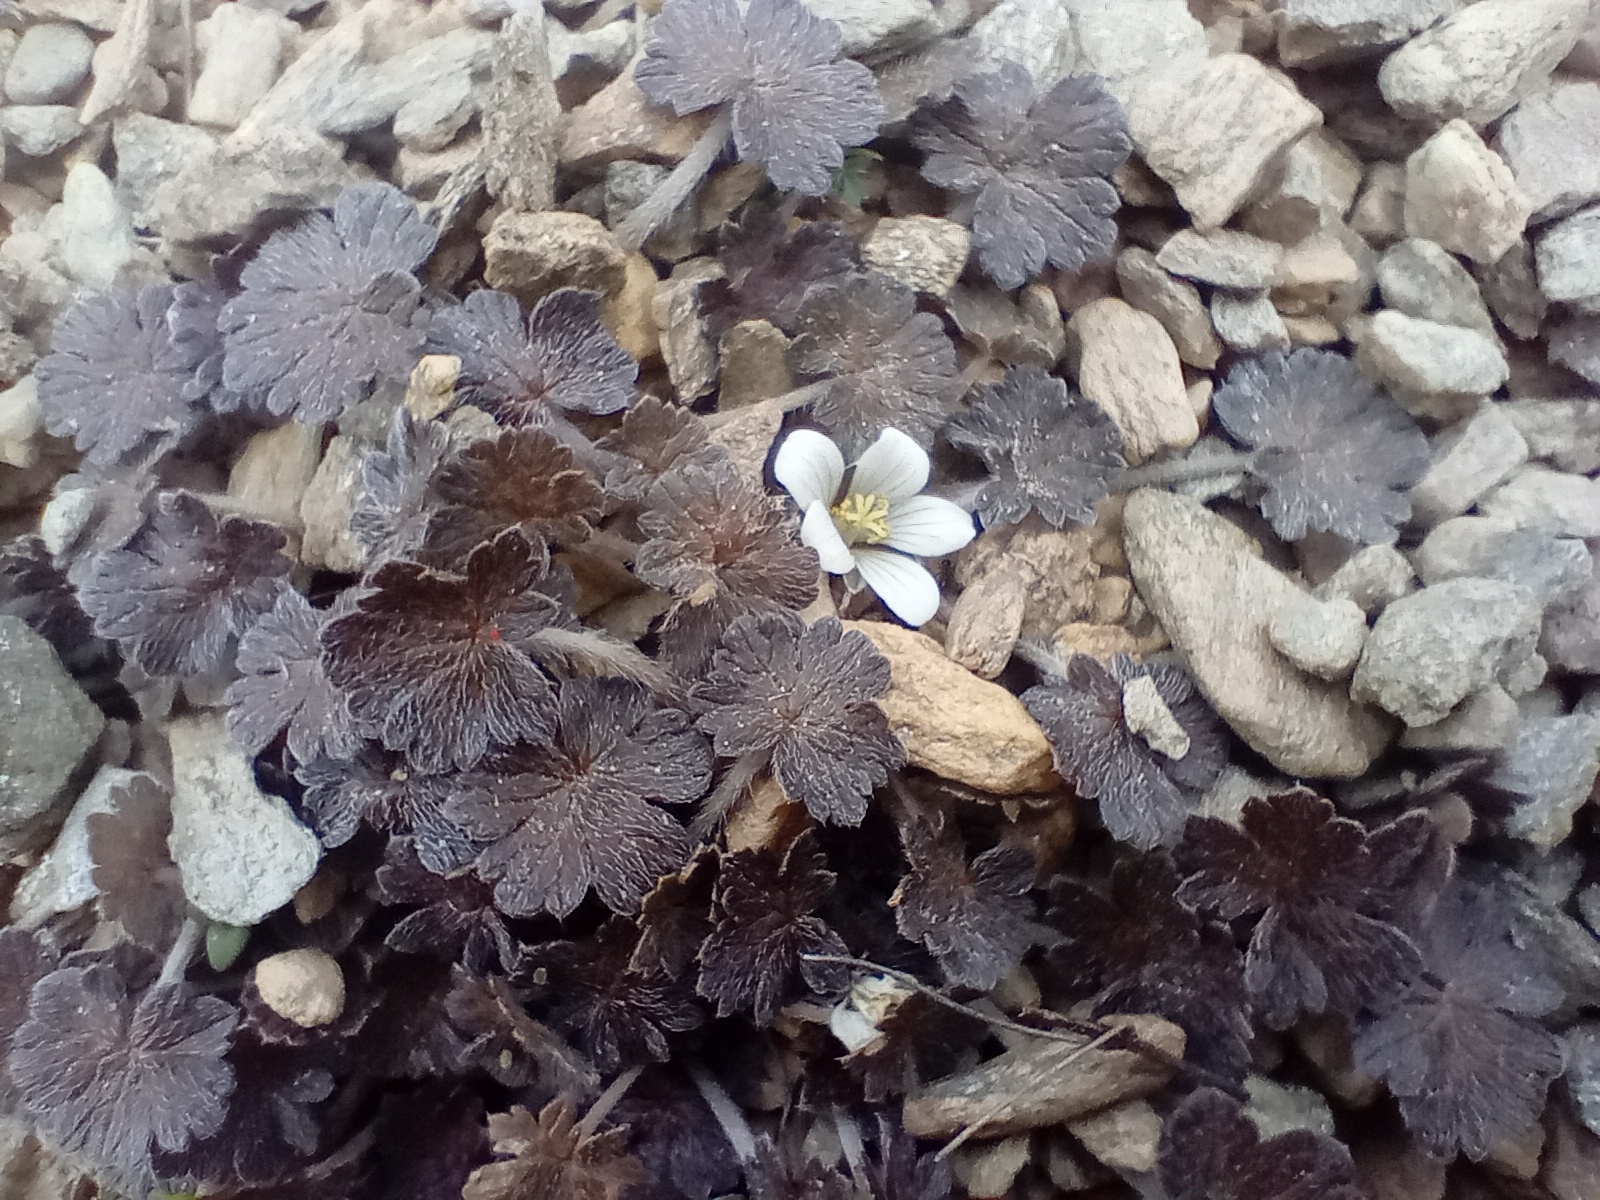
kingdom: Plantae
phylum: Tracheophyta
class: Magnoliopsida
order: Geraniales
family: Geraniaceae
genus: Geranium
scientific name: Geranium brevicaule
